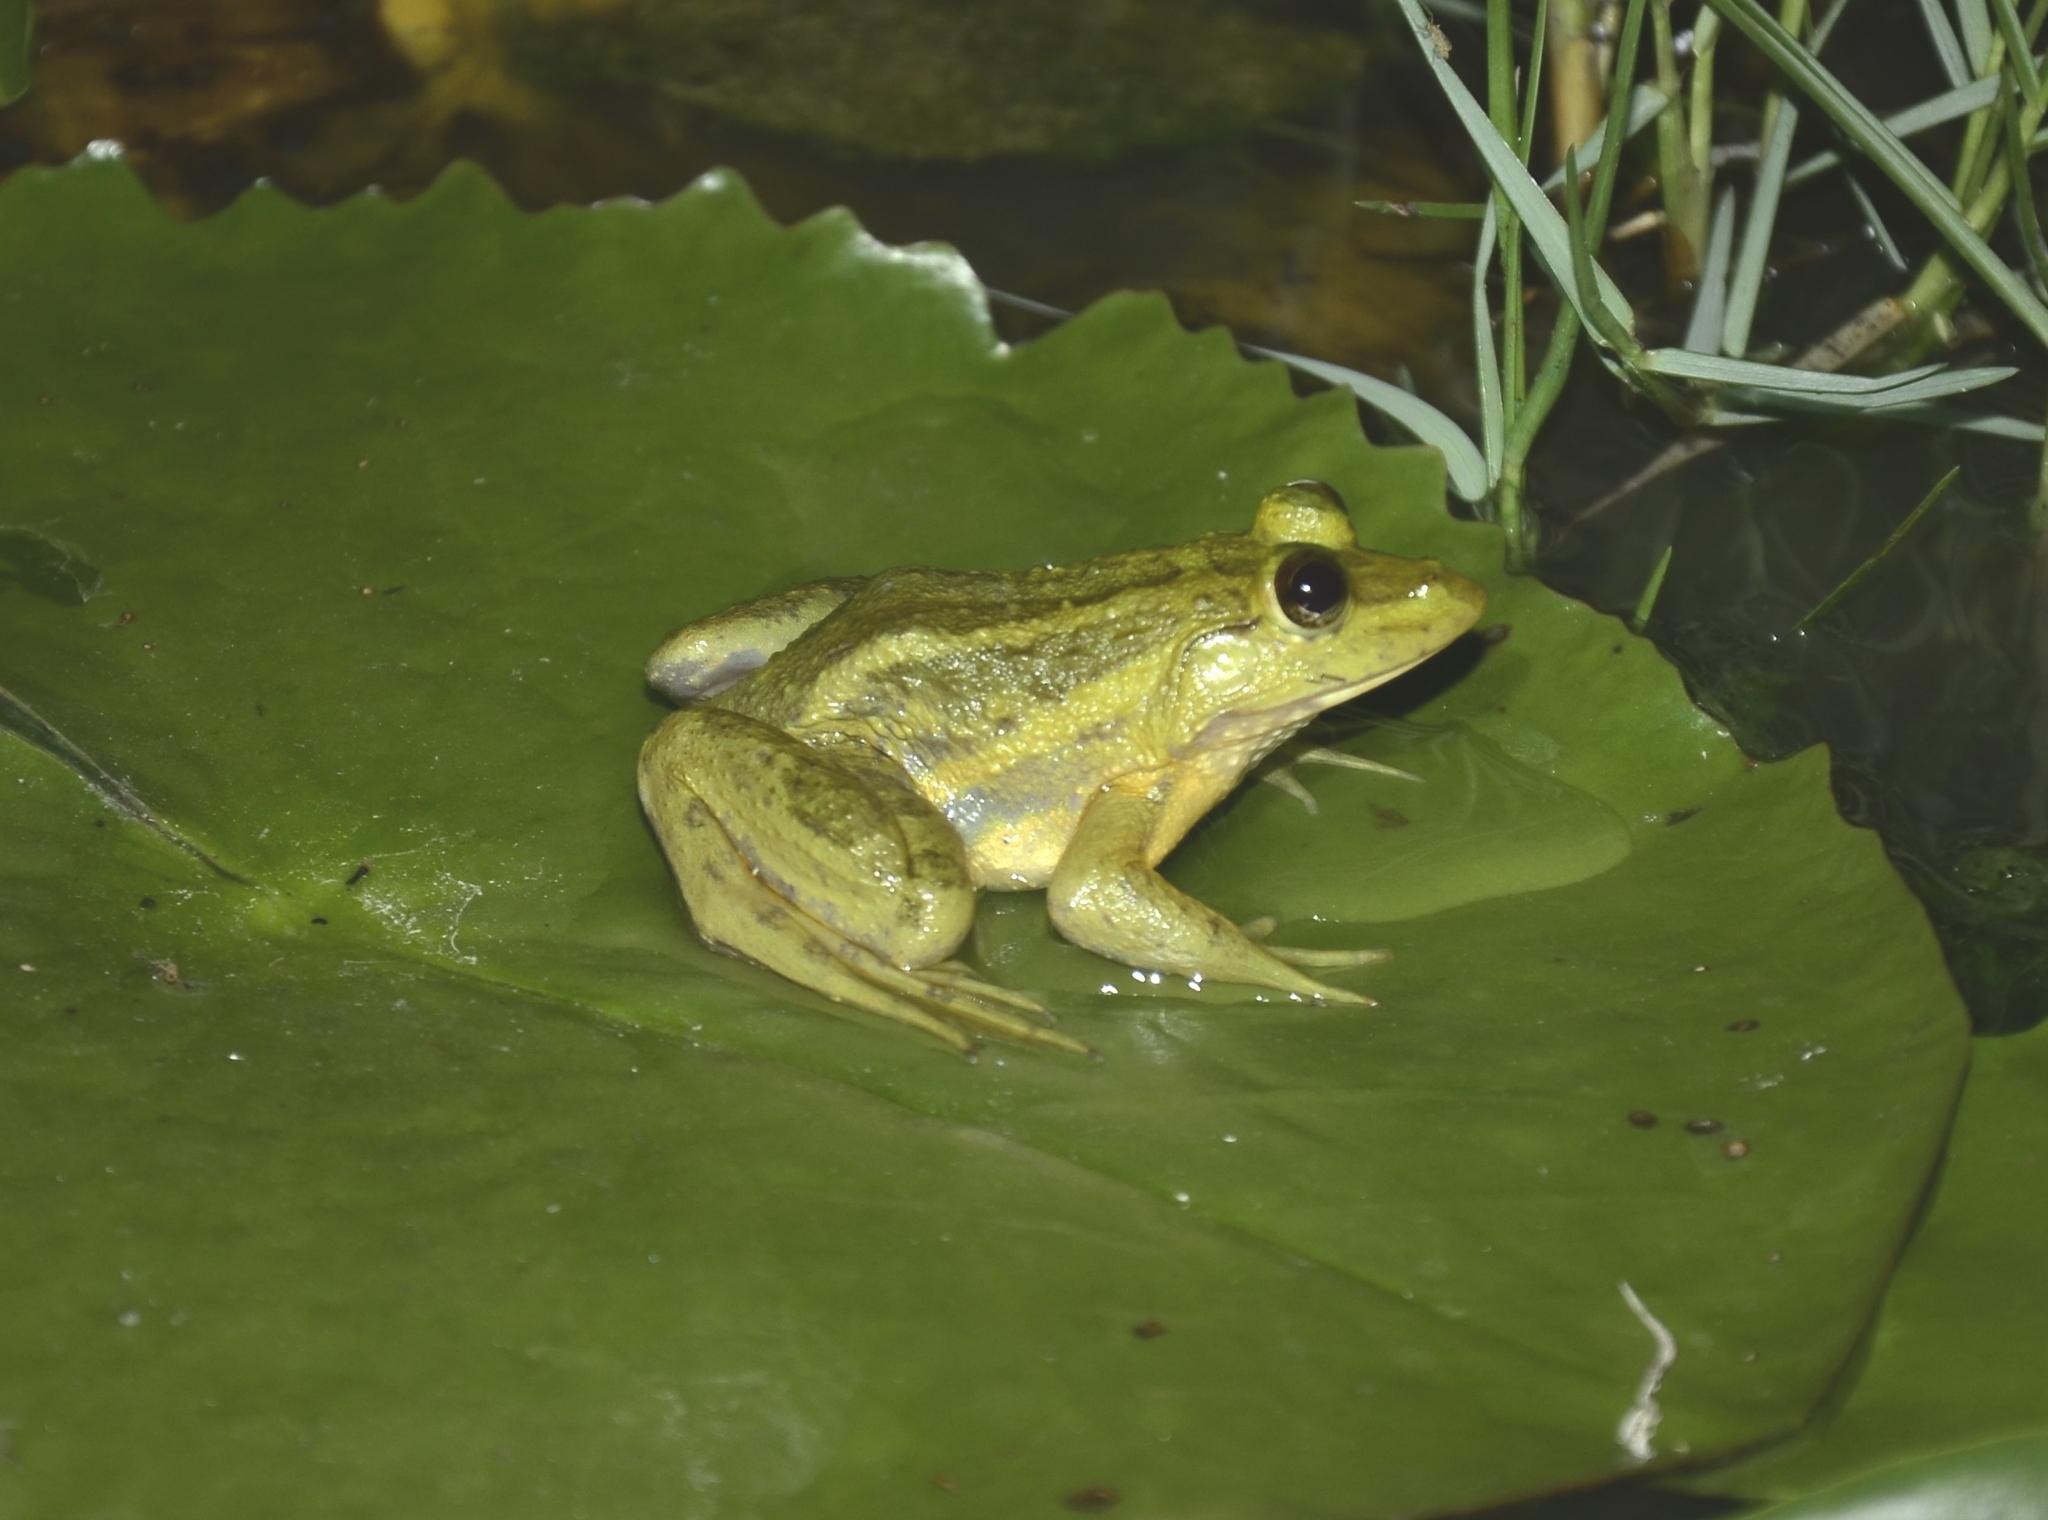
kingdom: Animalia
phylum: Chordata
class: Amphibia
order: Anura
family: Dicroglossidae
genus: Euphlyctis
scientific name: Euphlyctis karaavali
